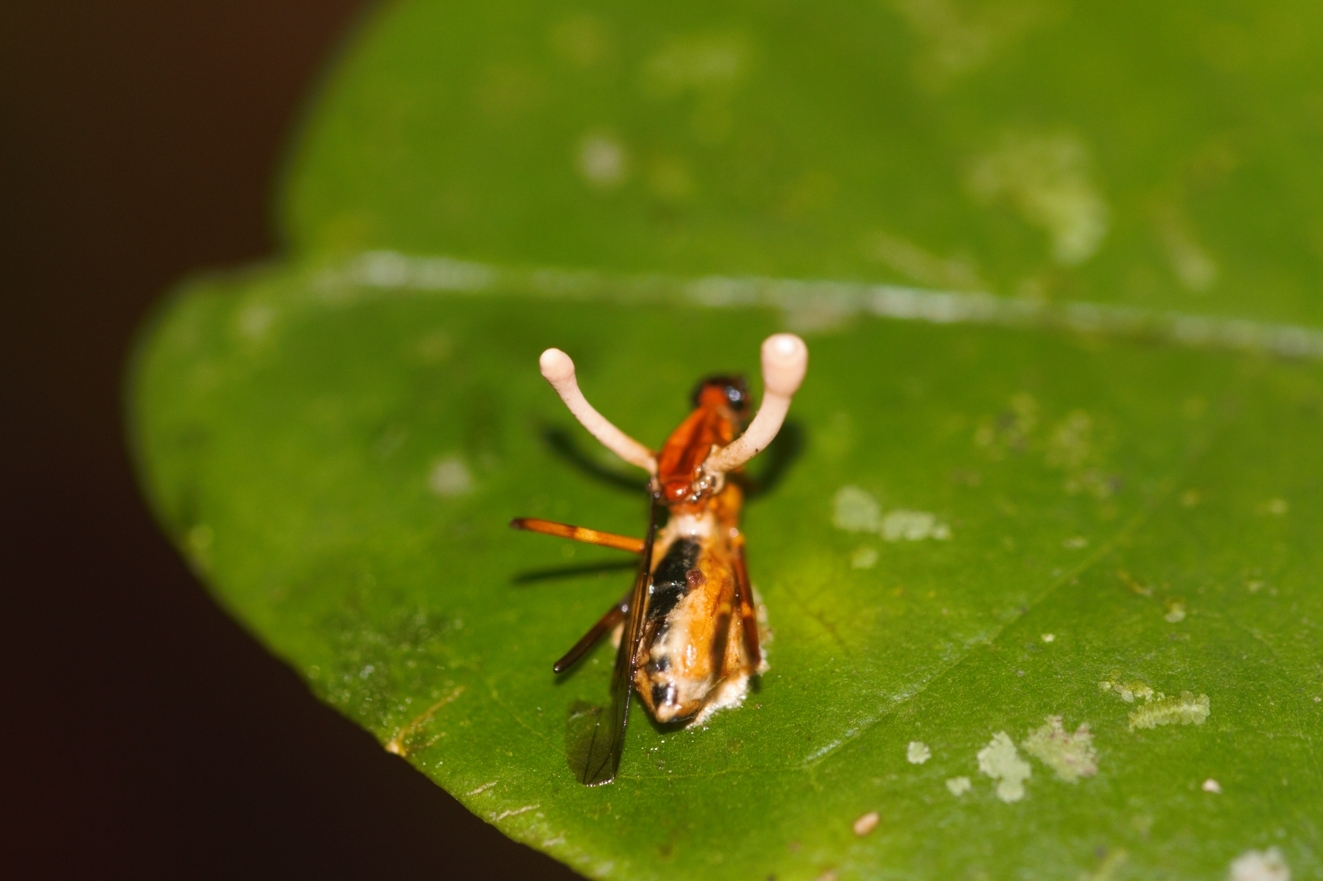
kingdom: Fungi
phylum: Ascomycota
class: Sordariomycetes
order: Hypocreales
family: Ophiocordycipitaceae
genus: Ophiocordyceps
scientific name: Ophiocordyceps dipterigena
